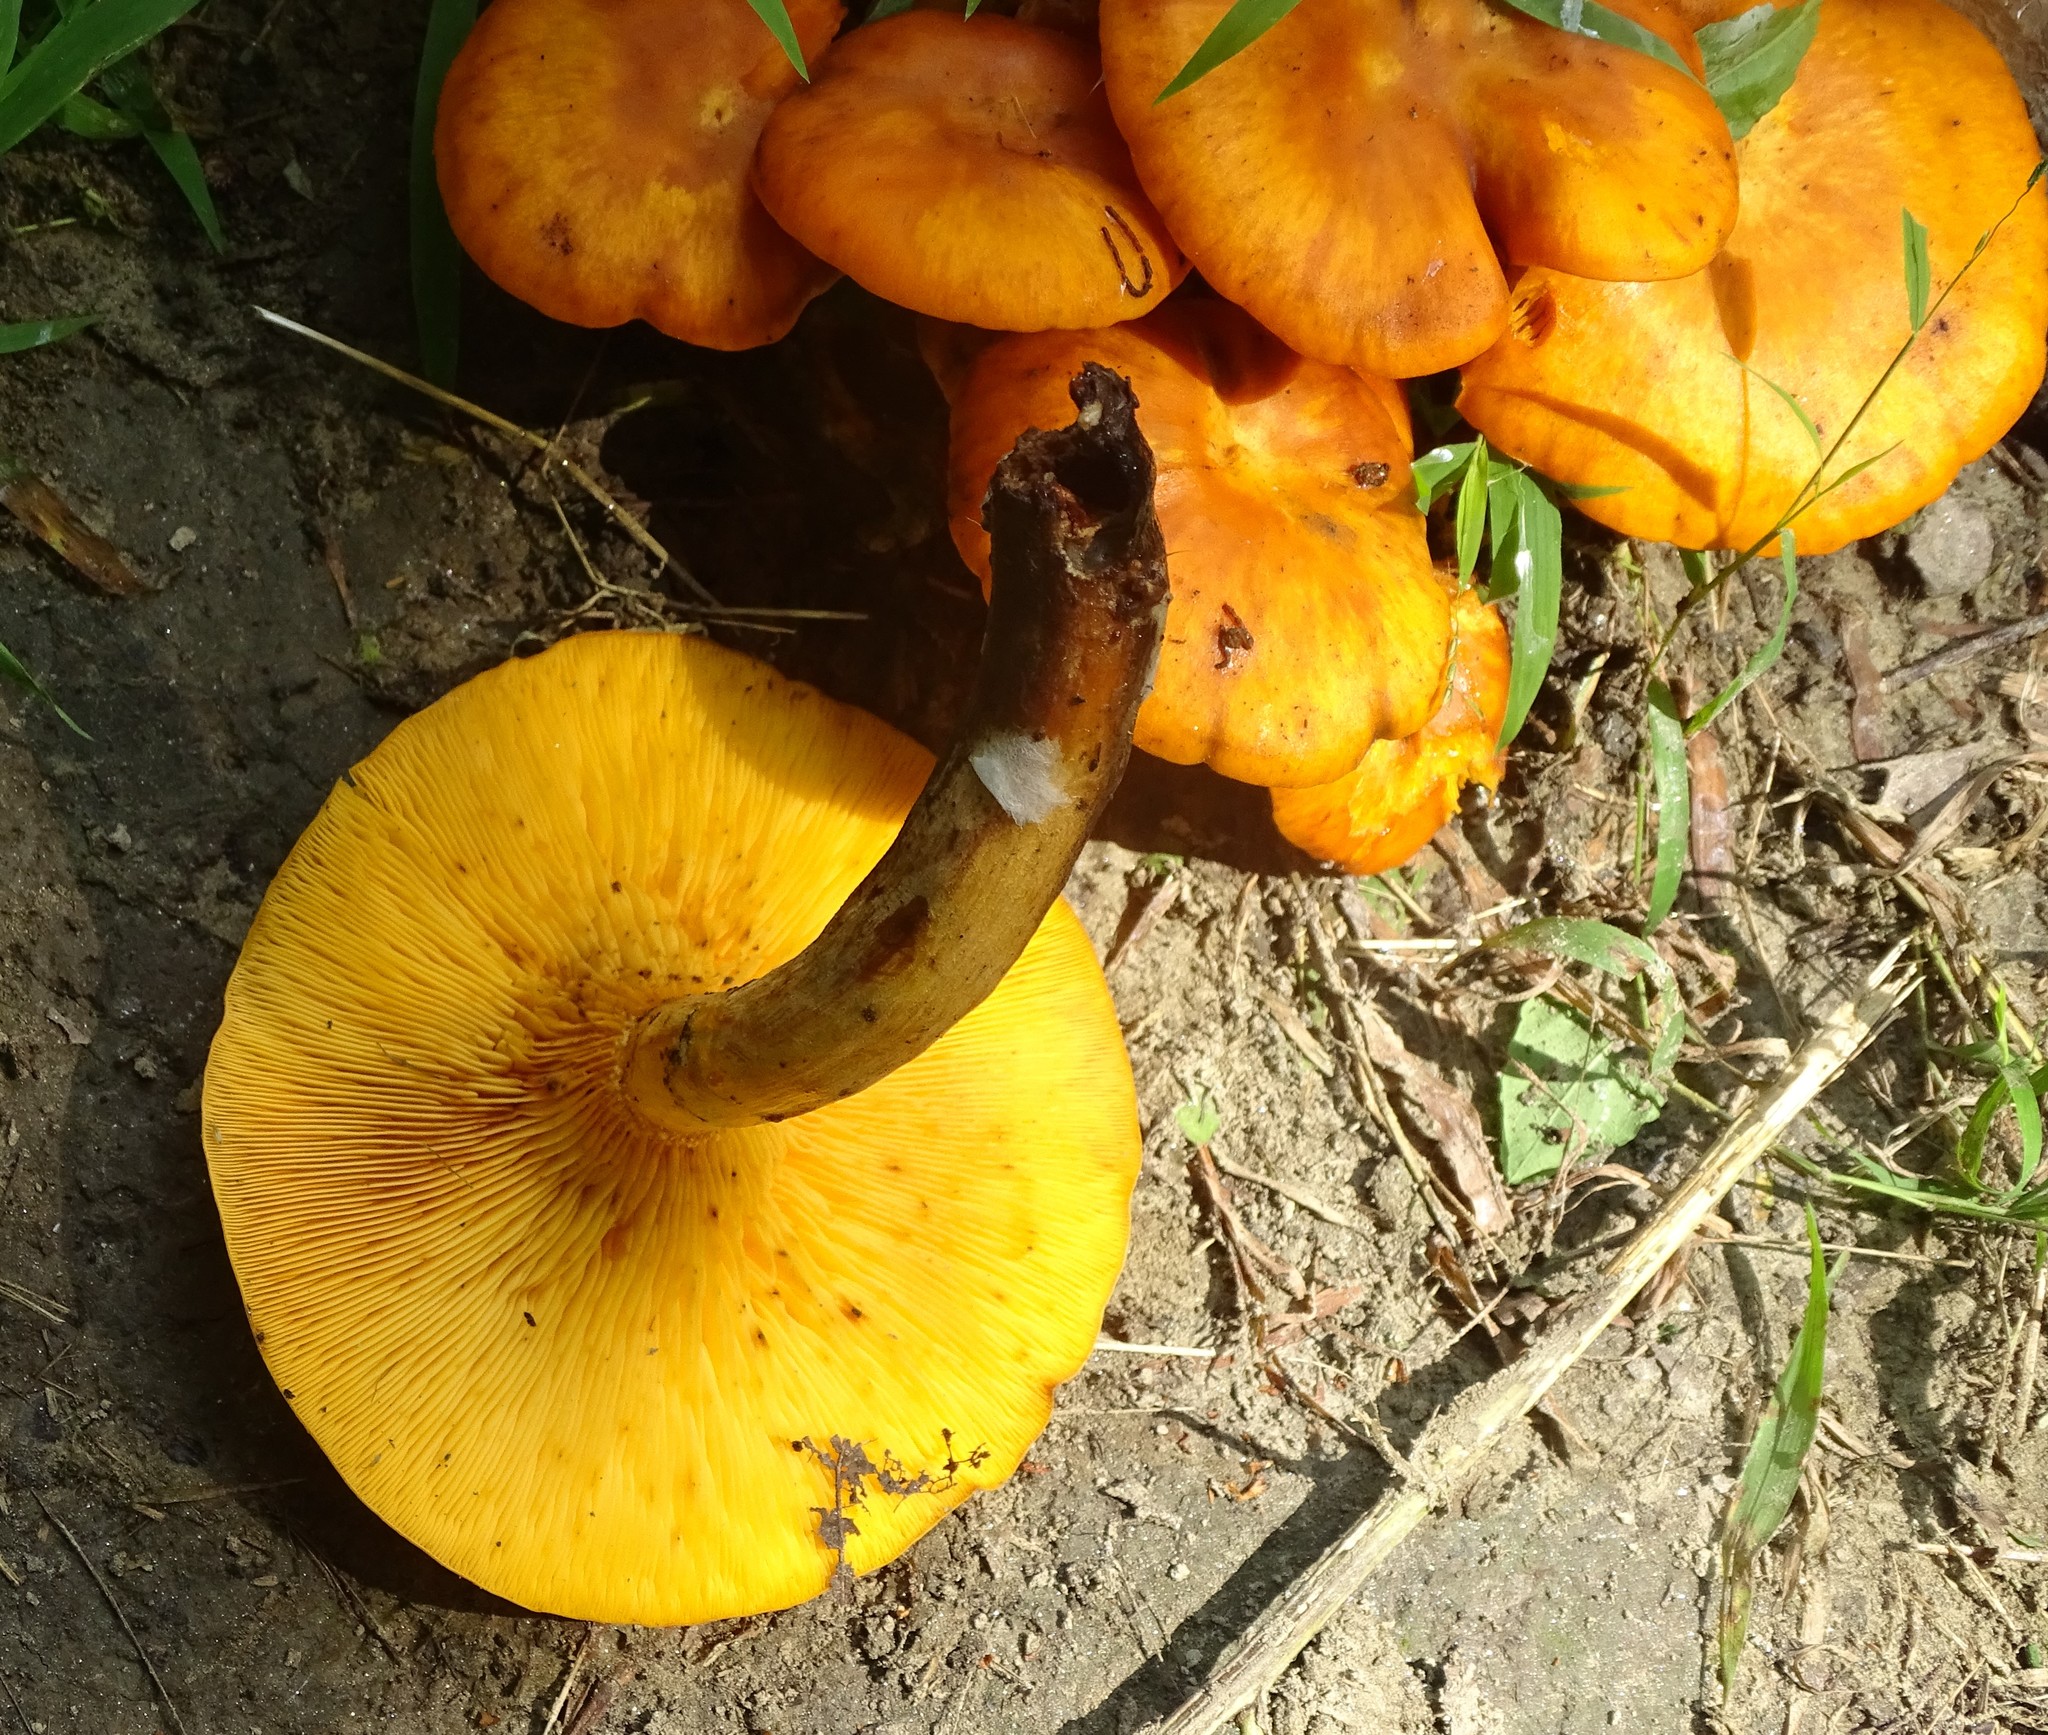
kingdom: Fungi
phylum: Basidiomycota
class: Agaricomycetes
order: Agaricales
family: Omphalotaceae
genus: Omphalotus
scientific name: Omphalotus illudens
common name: Jack o lantern
